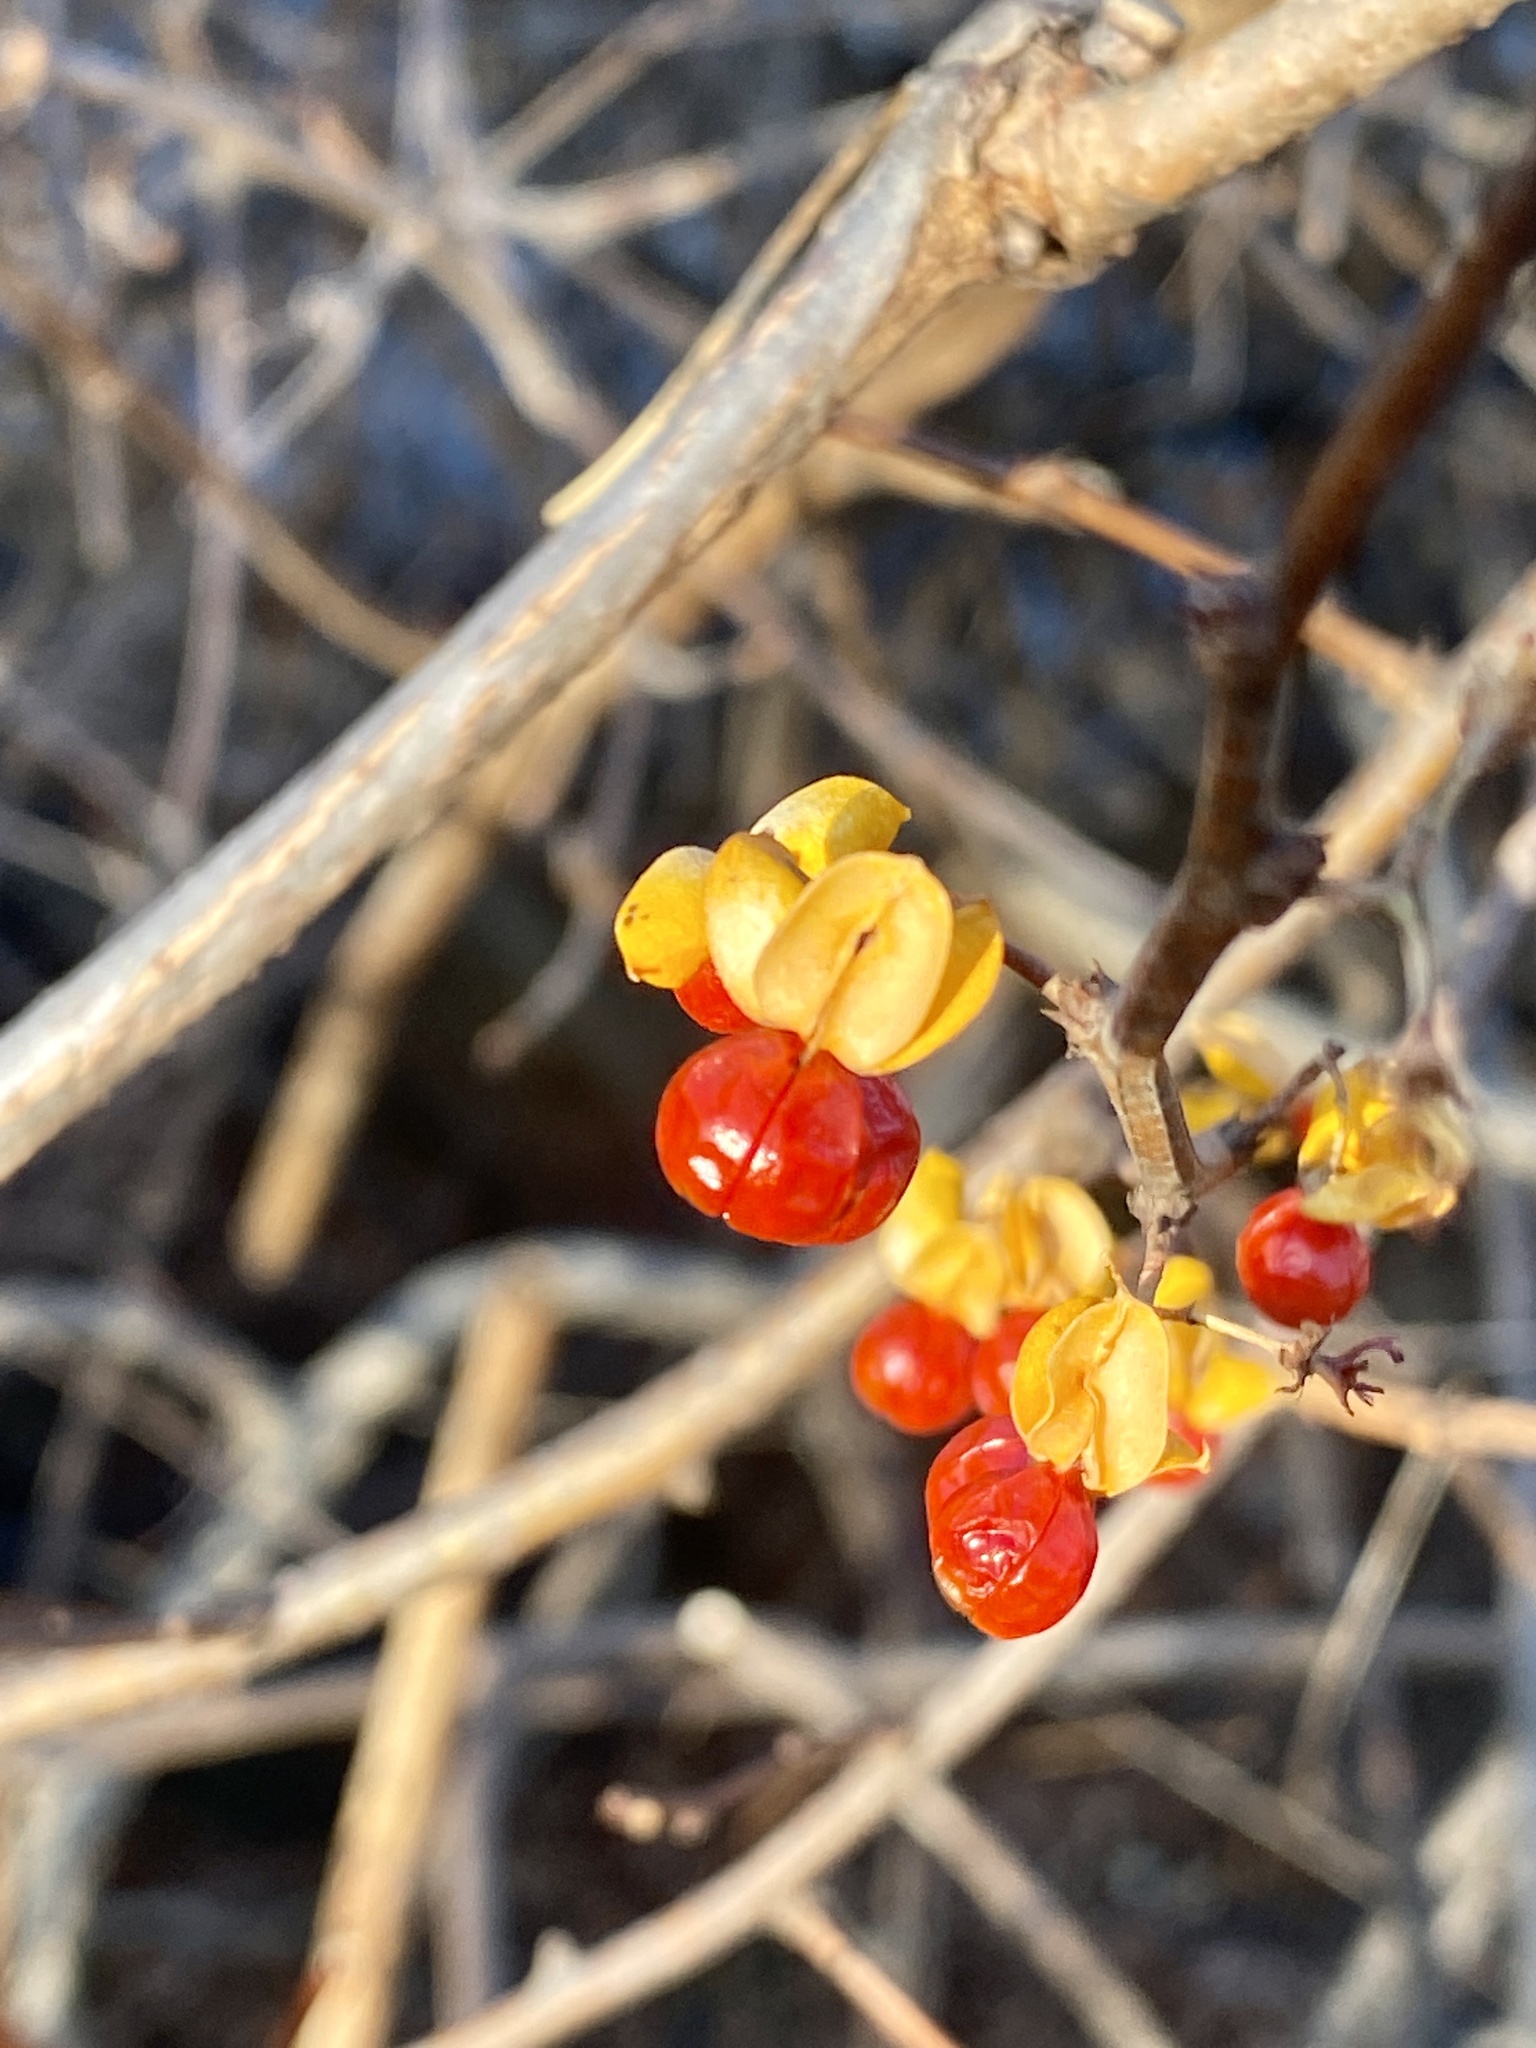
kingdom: Plantae
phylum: Tracheophyta
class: Magnoliopsida
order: Celastrales
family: Celastraceae
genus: Celastrus
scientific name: Celastrus orbiculatus
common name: Oriental bittersweet
